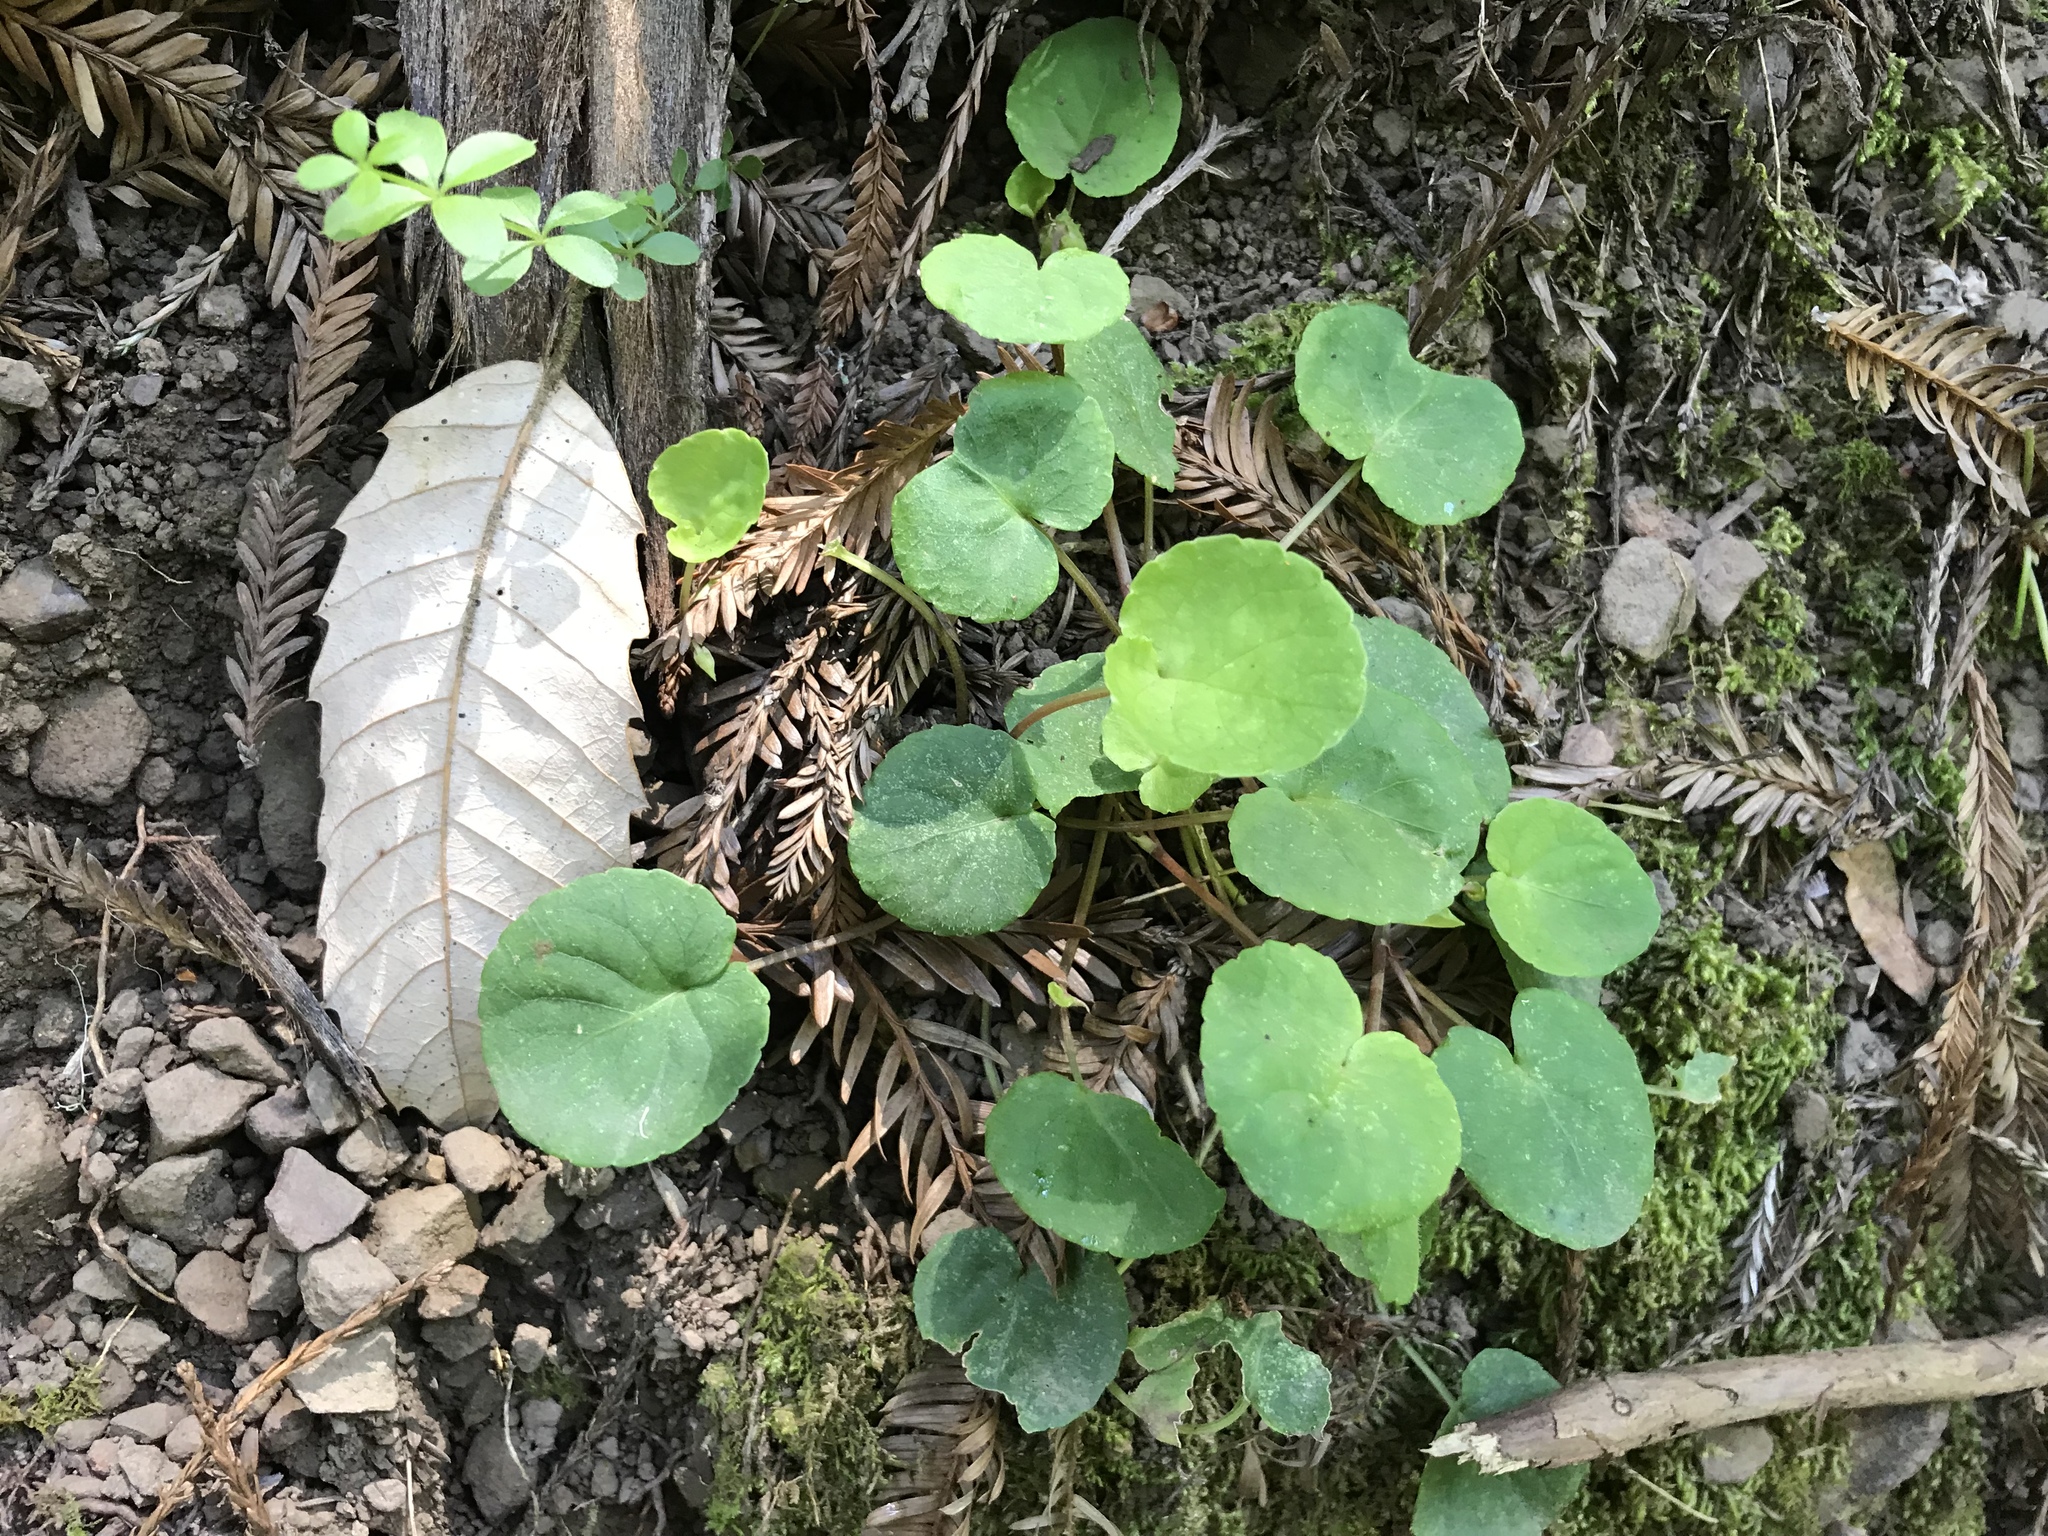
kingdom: Plantae
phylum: Tracheophyta
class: Magnoliopsida
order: Malpighiales
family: Violaceae
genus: Viola
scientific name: Viola sempervirens
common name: Evergreen violet
